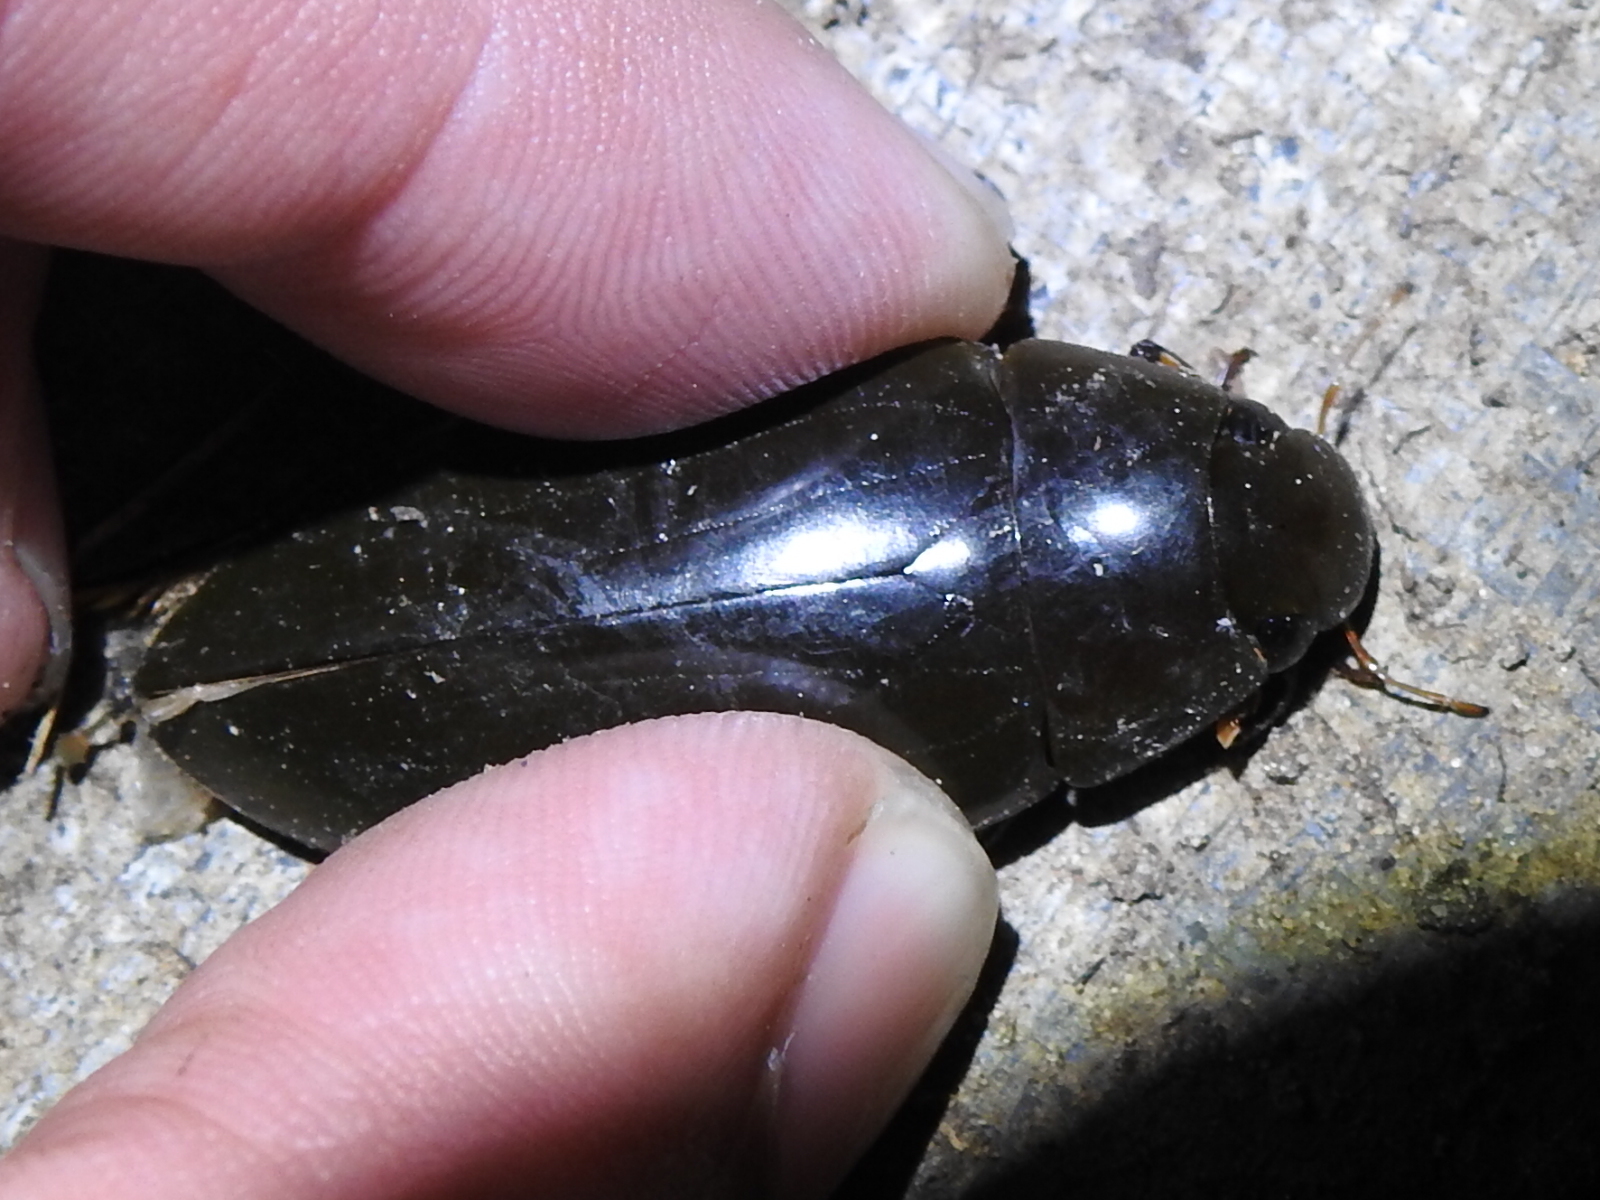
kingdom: Animalia
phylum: Arthropoda
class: Insecta
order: Coleoptera
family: Hydrophilidae
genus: Hydrophilus
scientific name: Hydrophilus triangularis
